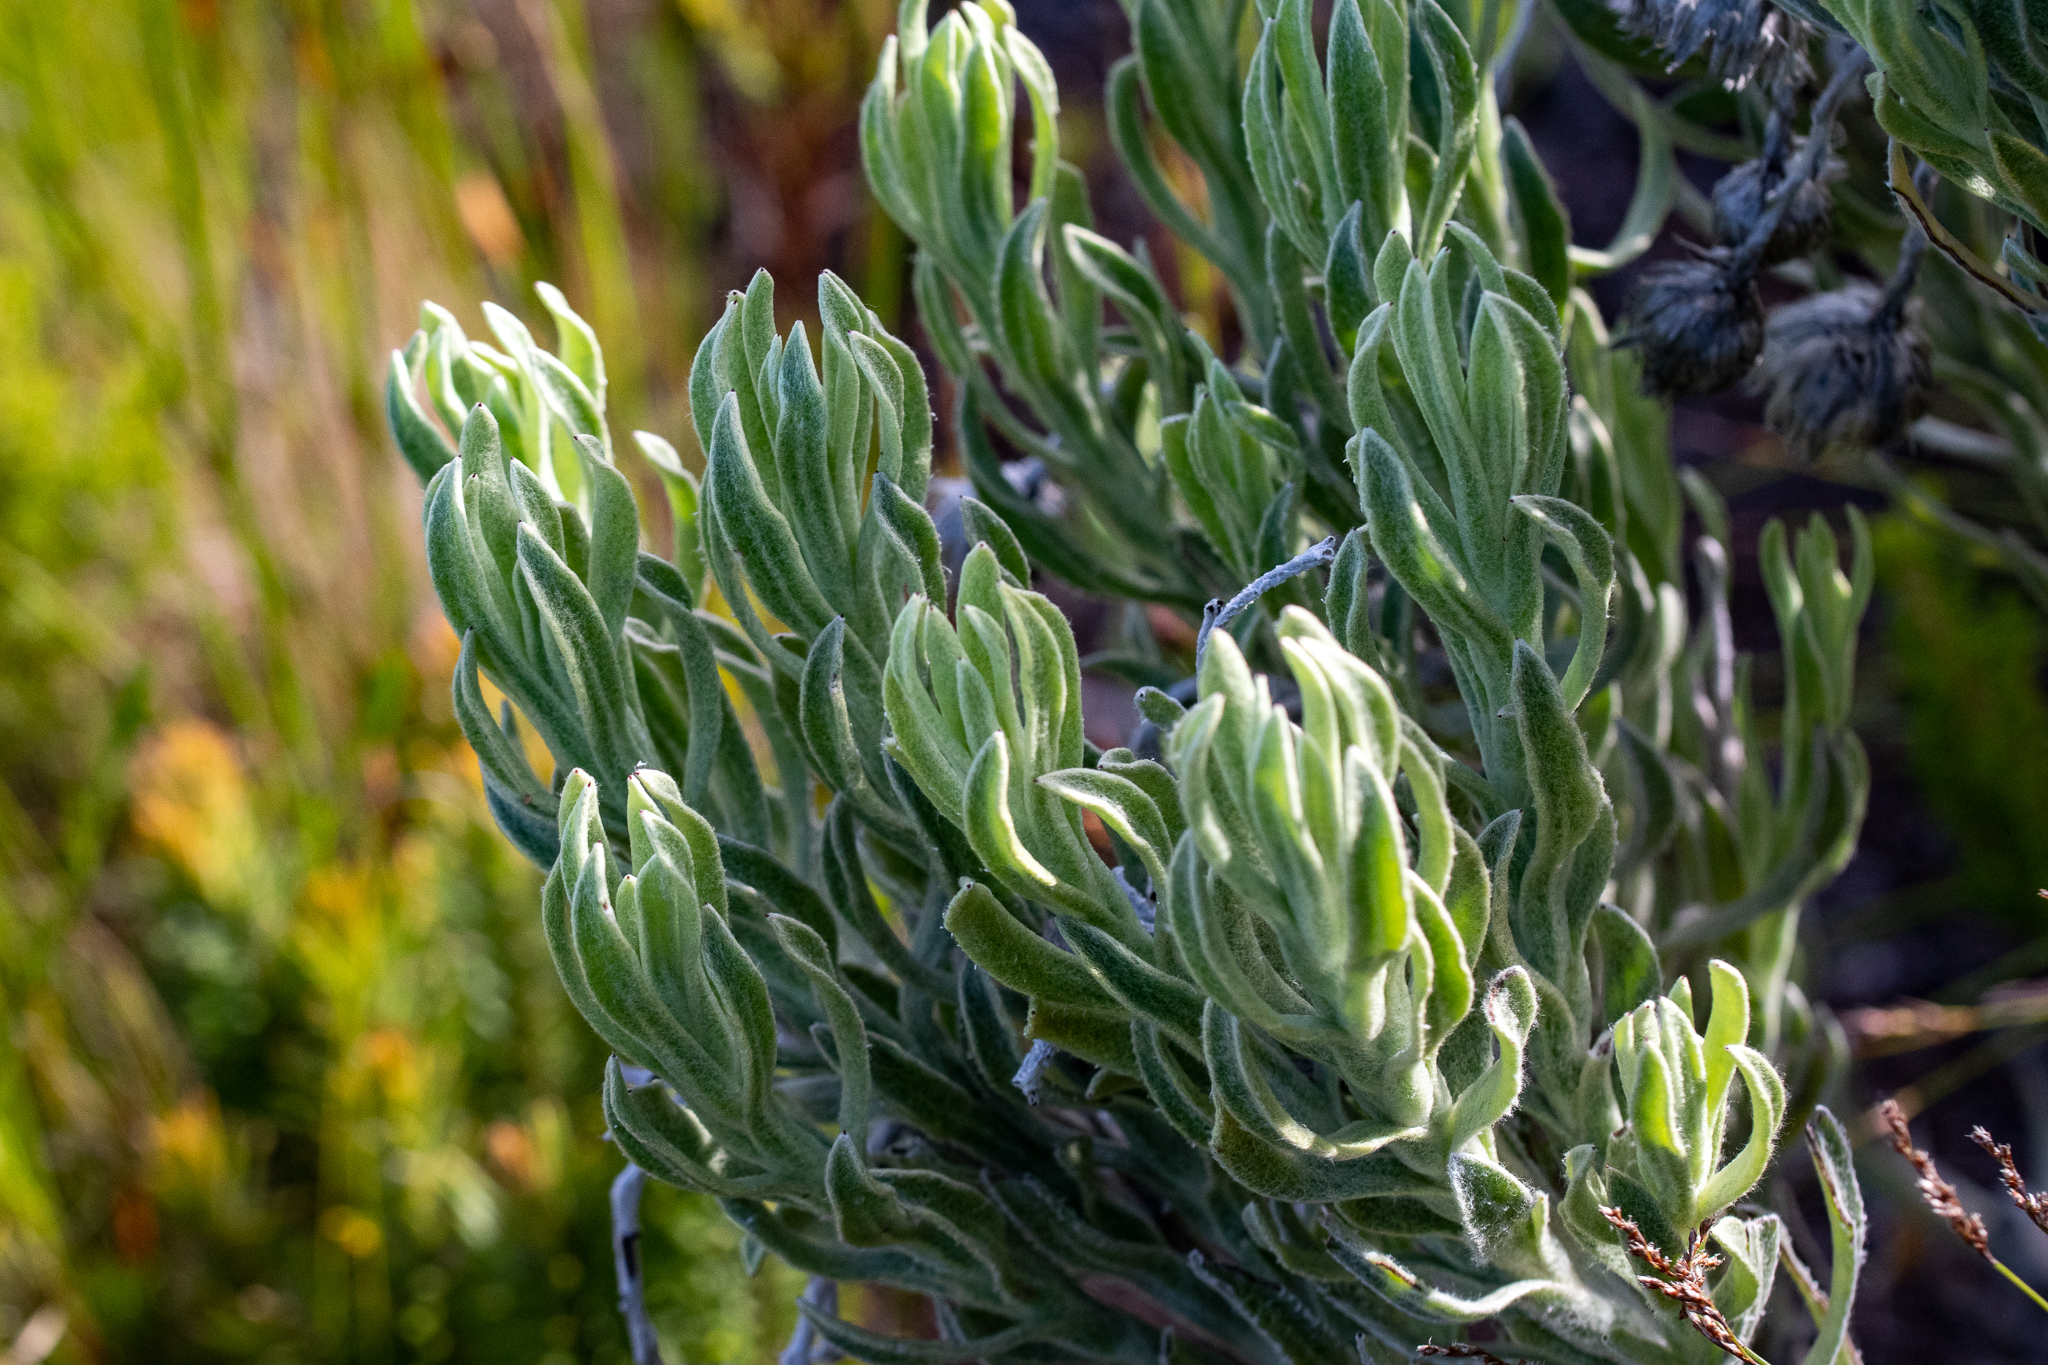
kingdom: Plantae
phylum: Tracheophyta
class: Magnoliopsida
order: Asterales
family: Asteraceae
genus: Syncarpha
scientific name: Syncarpha vestita
